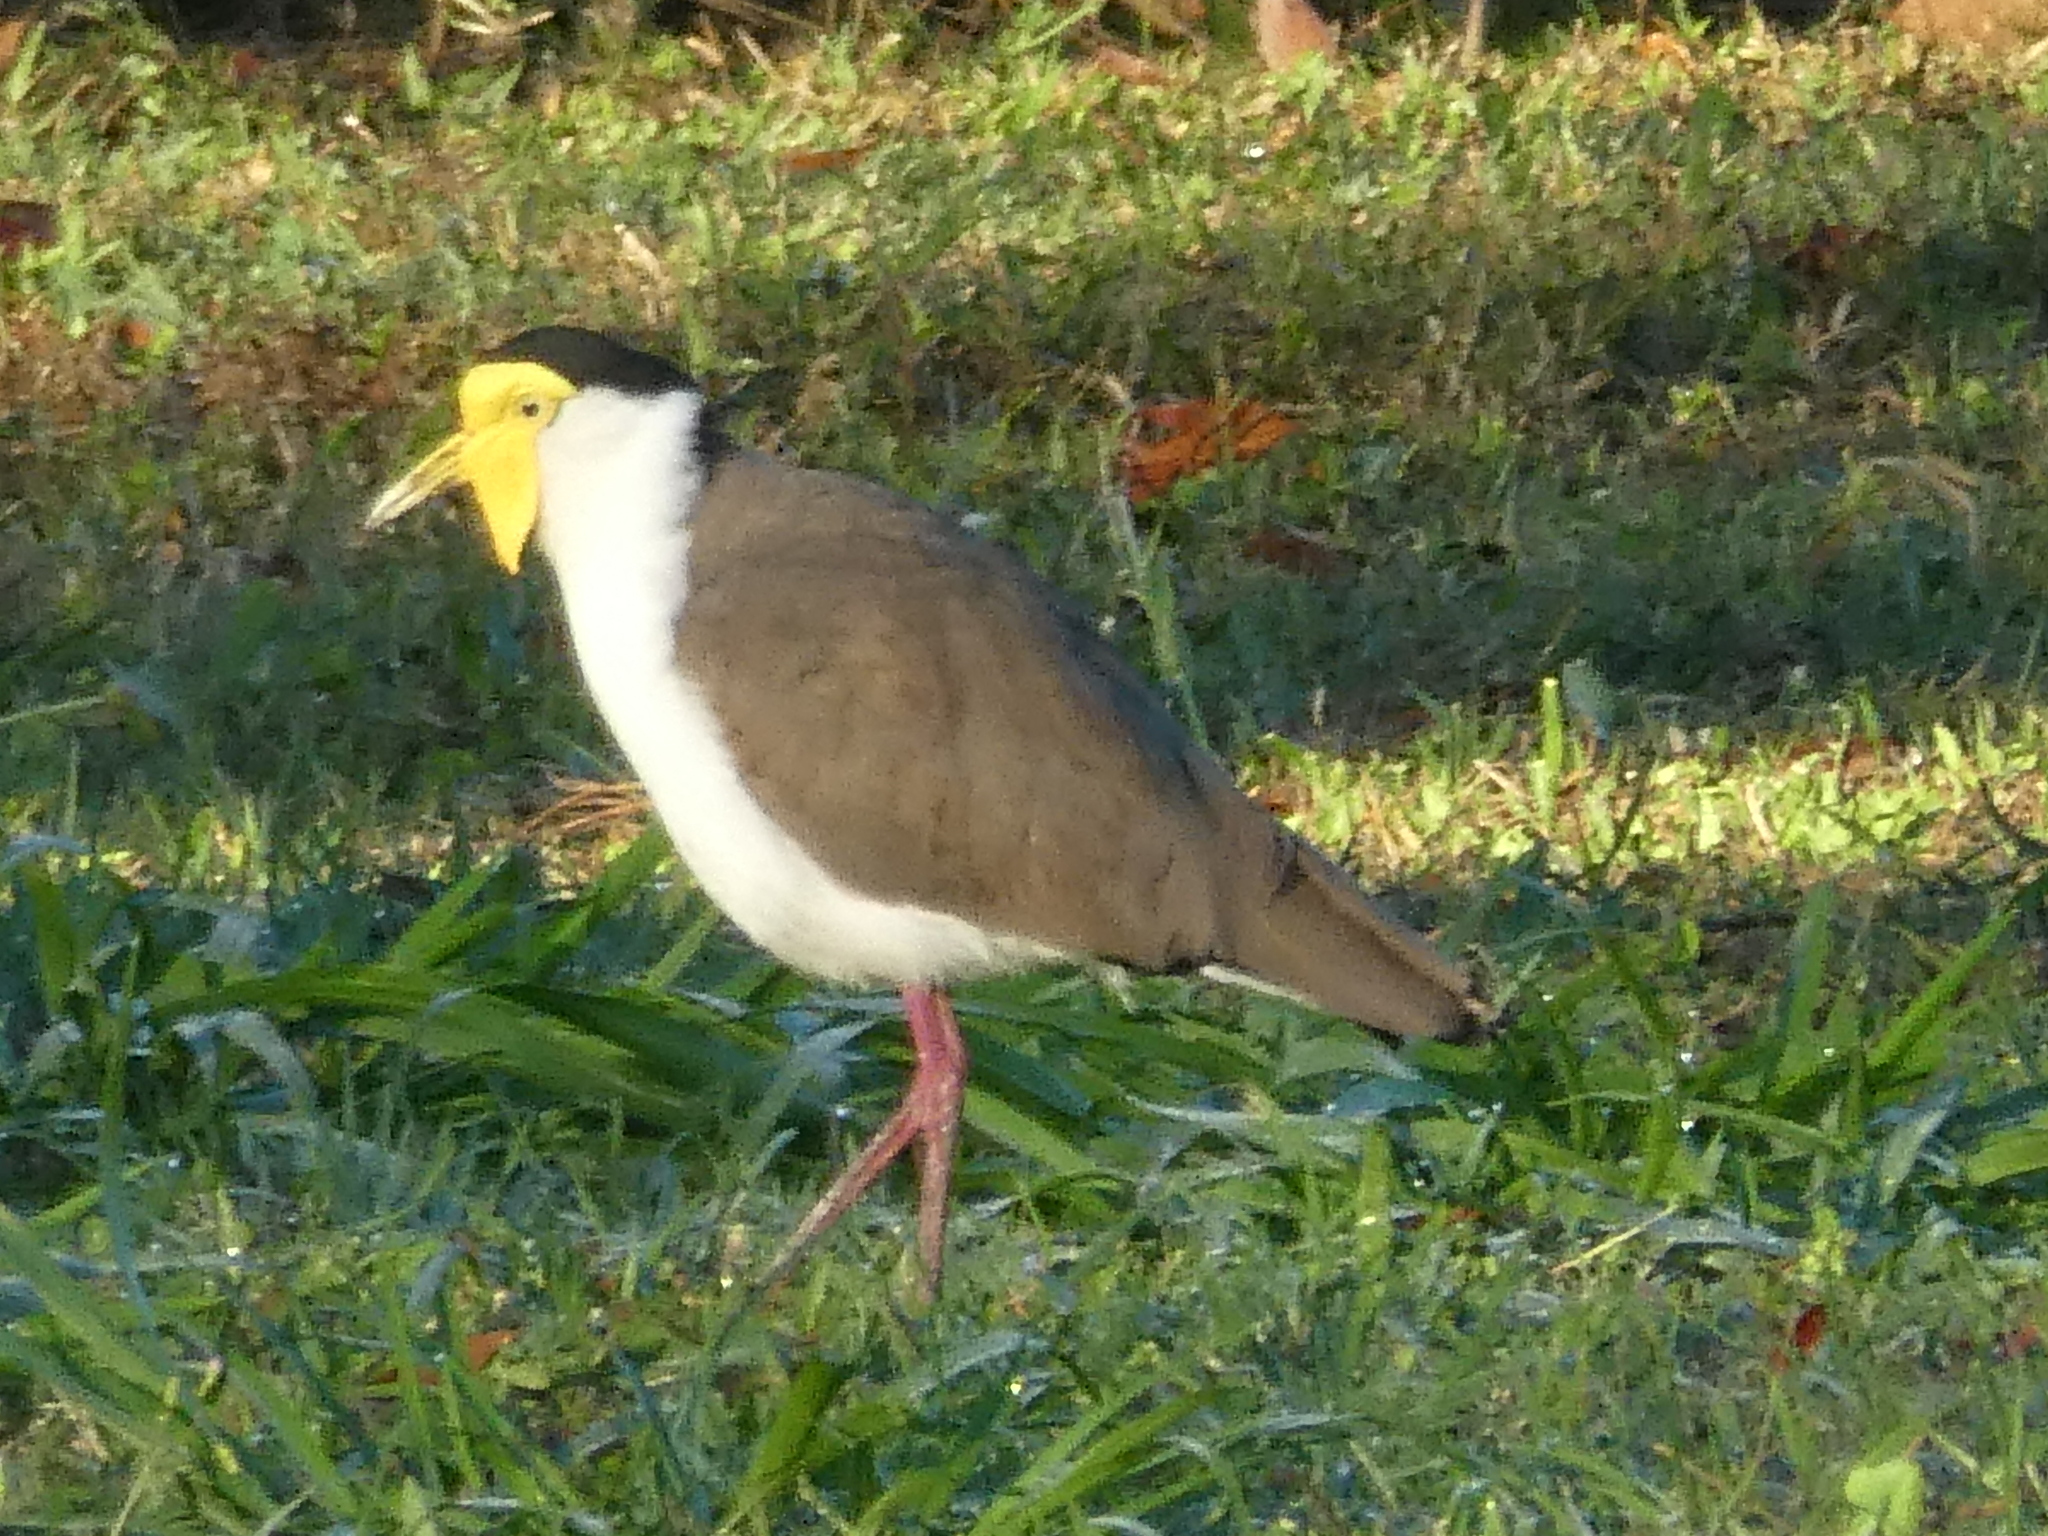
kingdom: Animalia
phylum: Chordata
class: Aves
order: Charadriiformes
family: Charadriidae
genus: Vanellus
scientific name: Vanellus miles
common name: Masked lapwing
